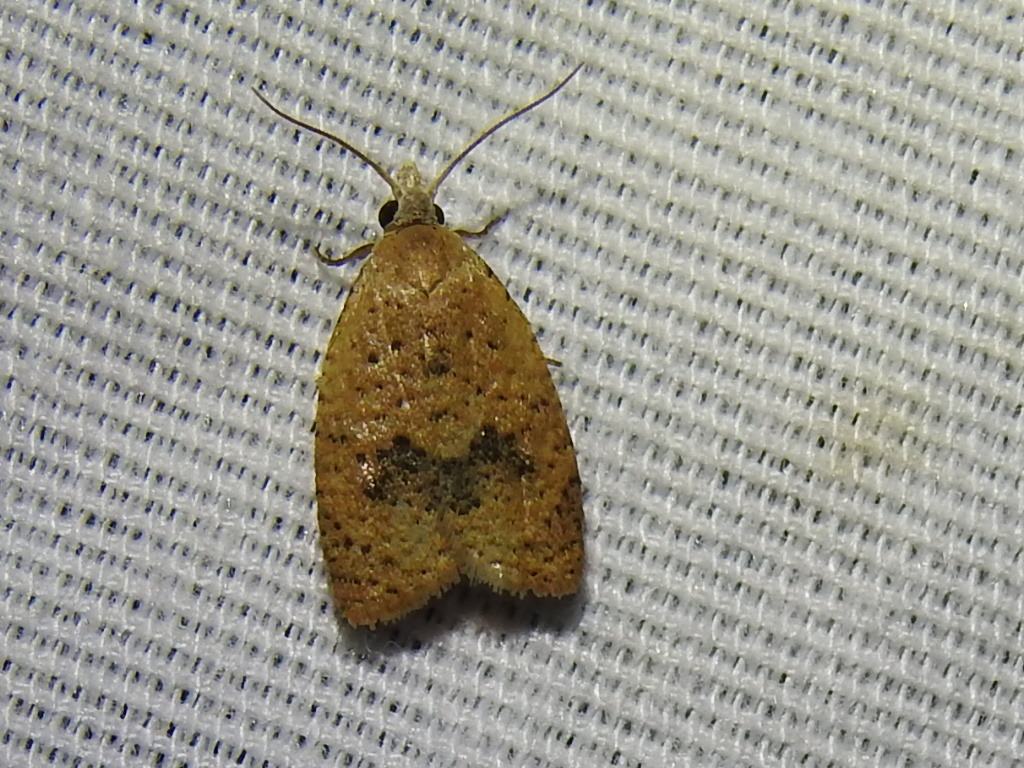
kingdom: Animalia
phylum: Arthropoda
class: Insecta
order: Lepidoptera
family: Tortricidae
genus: Sparganothoides
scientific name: Sparganothoides lentiginosana
